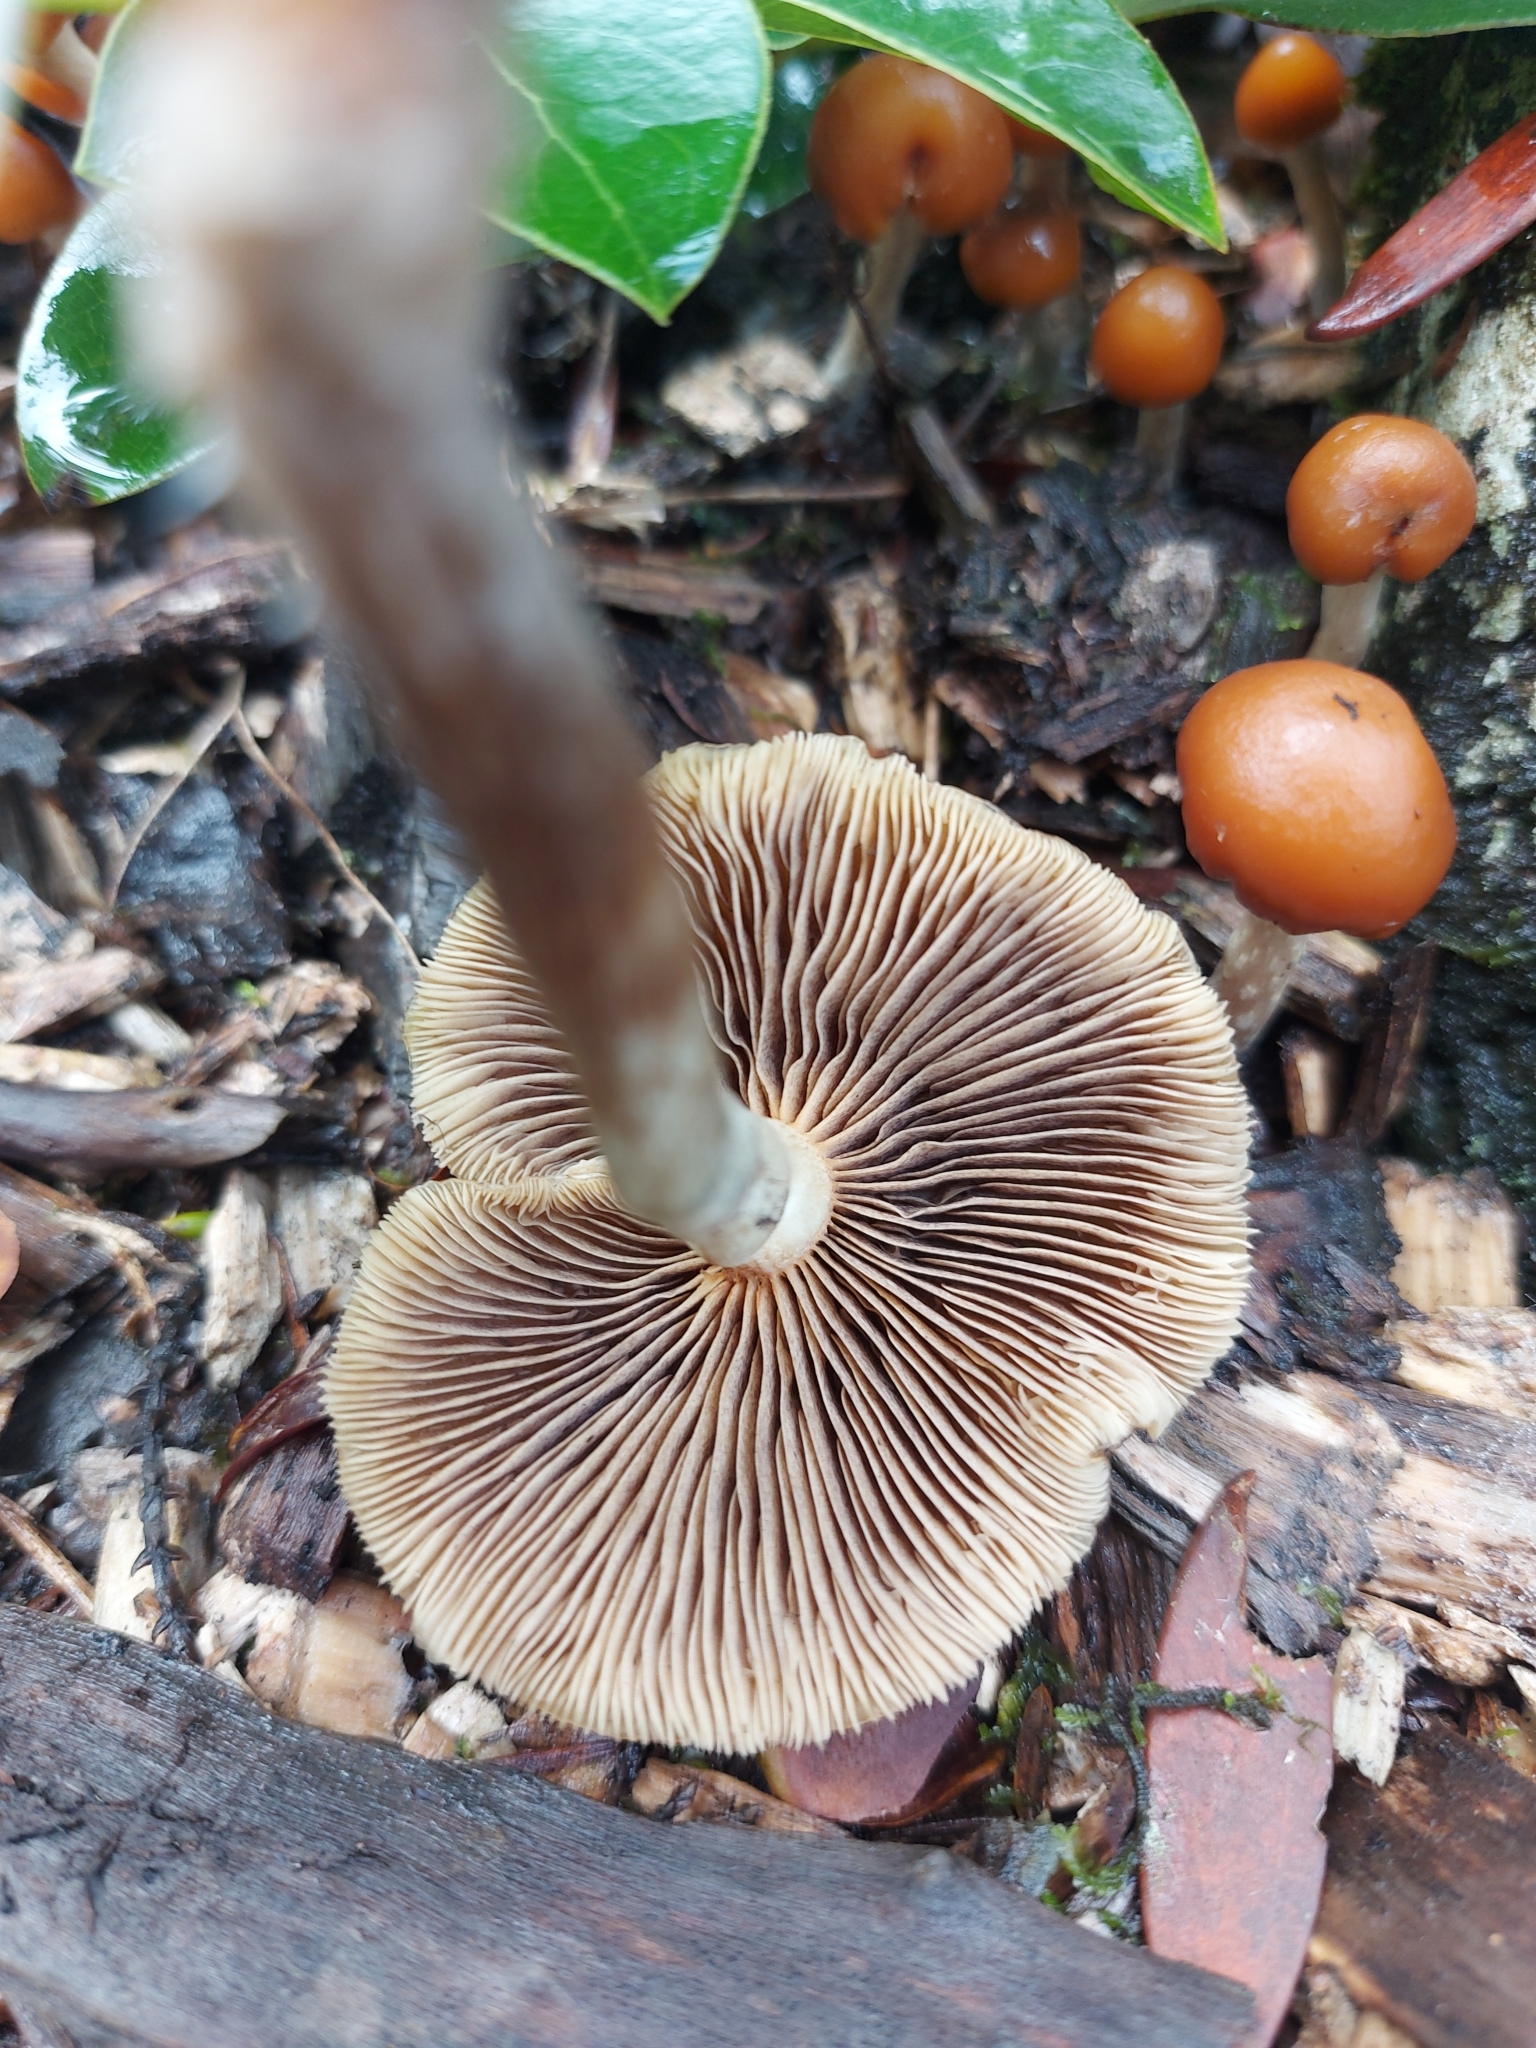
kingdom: Fungi
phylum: Basidiomycota
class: Agaricomycetes
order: Agaricales
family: Hymenogastraceae
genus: Psilocybe
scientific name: Psilocybe subaeruginosa
